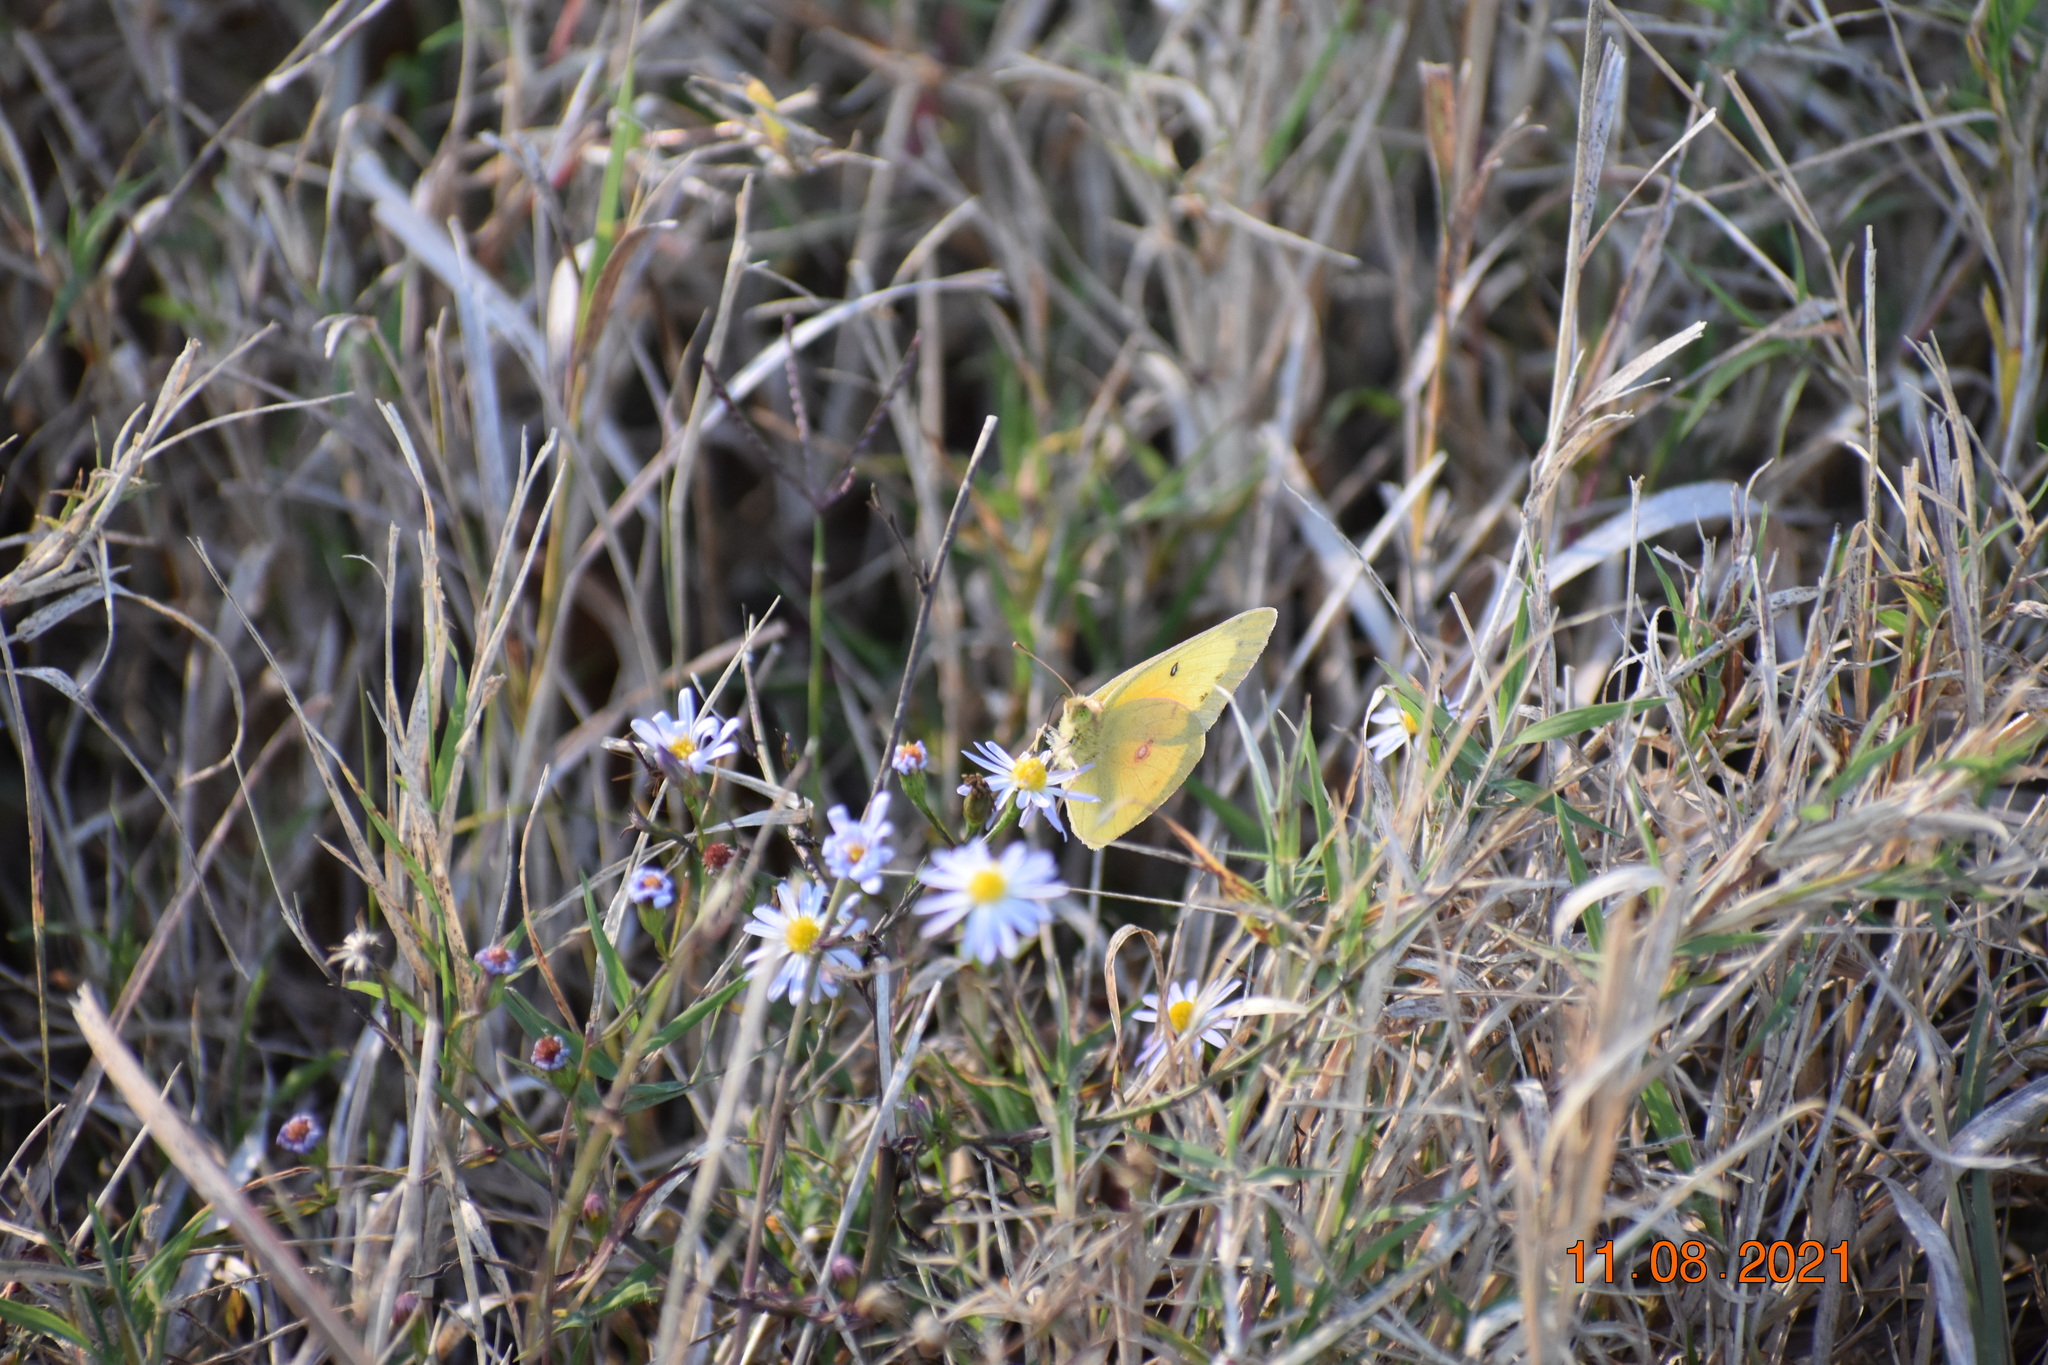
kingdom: Animalia
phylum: Arthropoda
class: Insecta
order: Lepidoptera
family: Pieridae
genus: Colias
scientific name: Colias eurytheme
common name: Alfalfa butterfly
